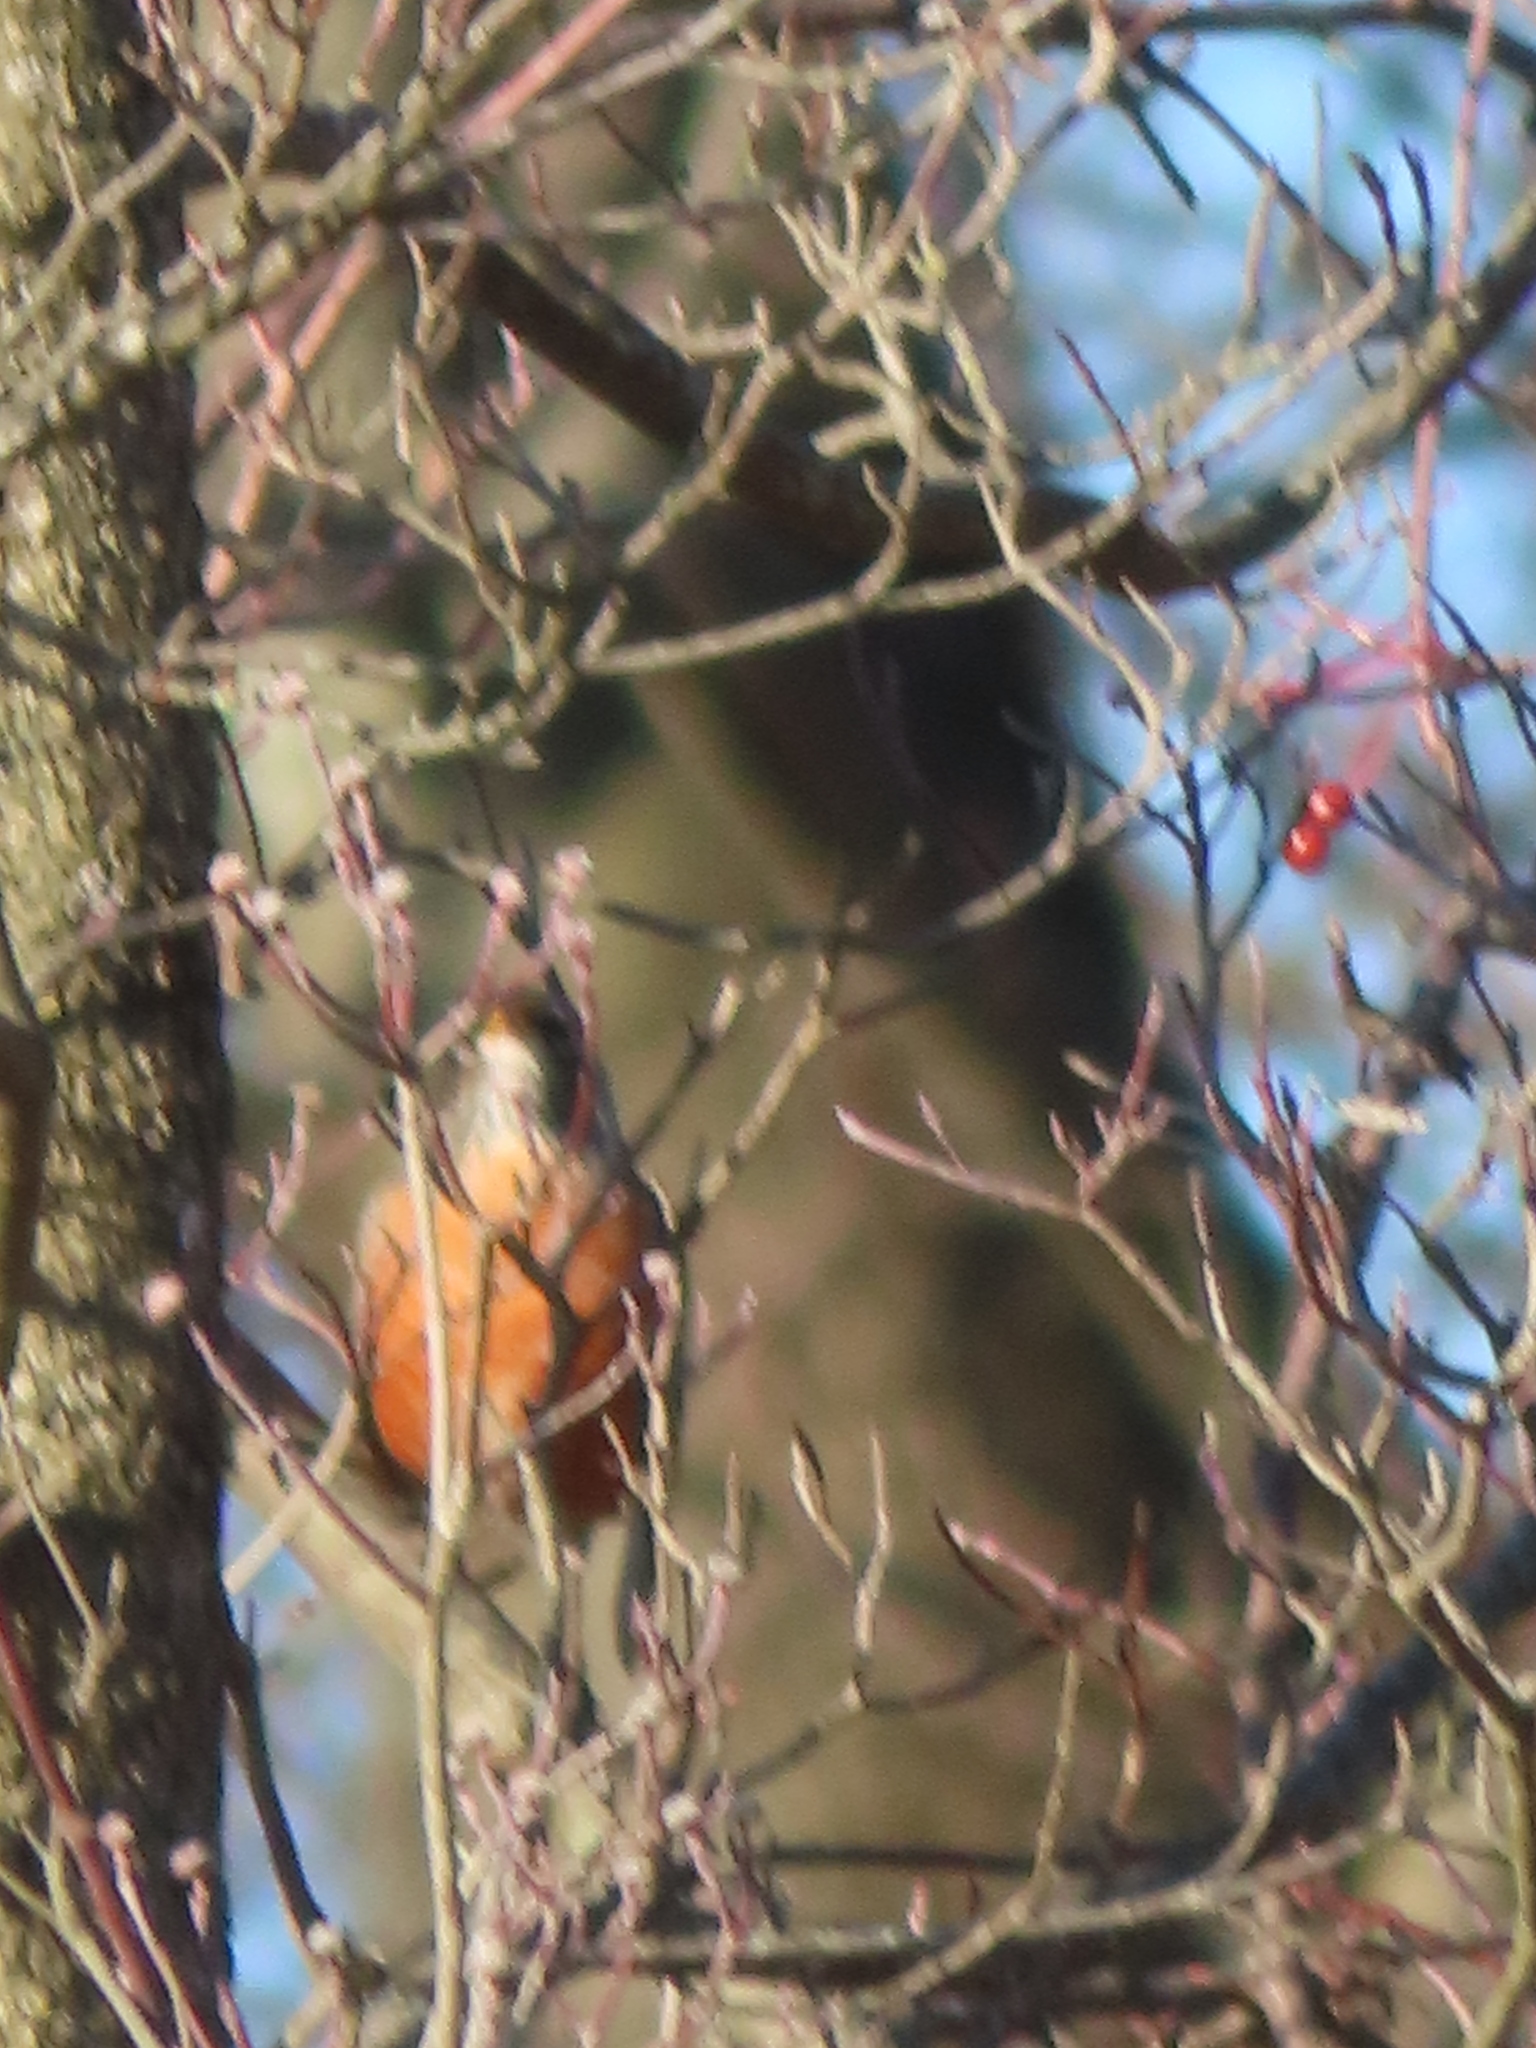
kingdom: Animalia
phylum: Chordata
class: Aves
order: Passeriformes
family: Turdidae
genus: Turdus
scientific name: Turdus migratorius
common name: American robin
